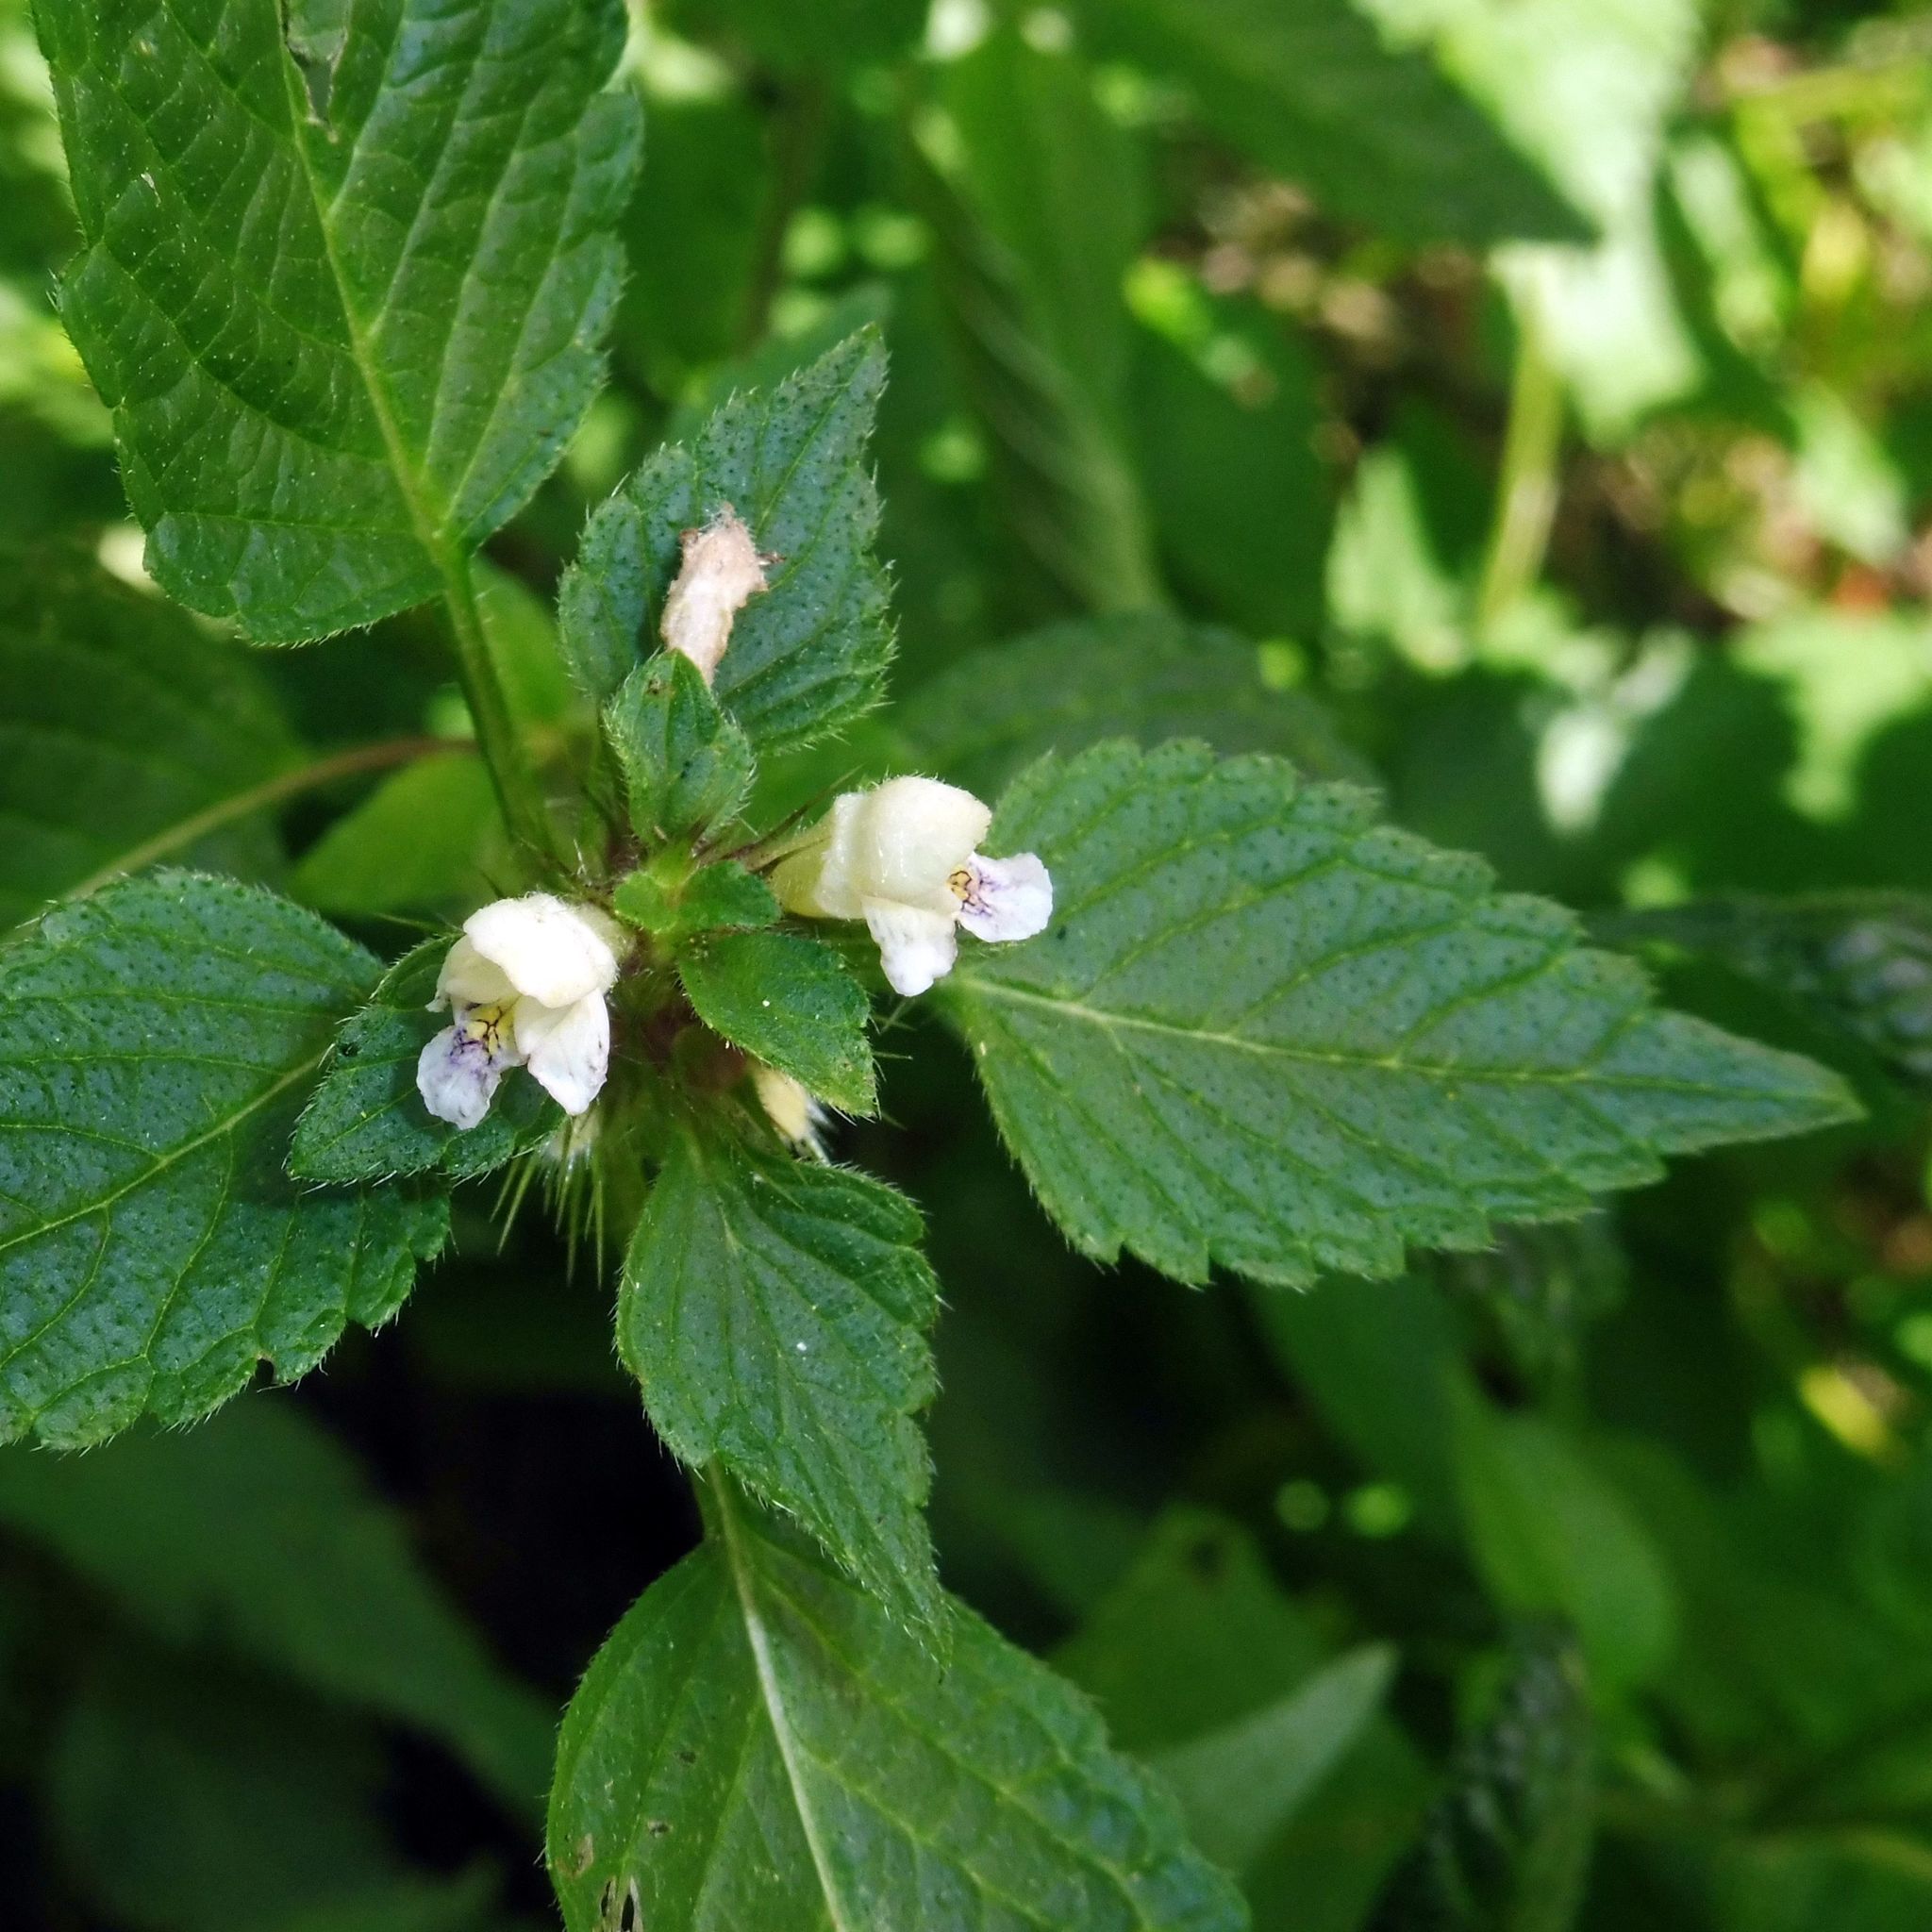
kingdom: Plantae
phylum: Tracheophyta
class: Magnoliopsida
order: Lamiales
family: Lamiaceae
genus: Galeopsis
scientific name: Galeopsis tetrahit
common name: Common hemp-nettle
